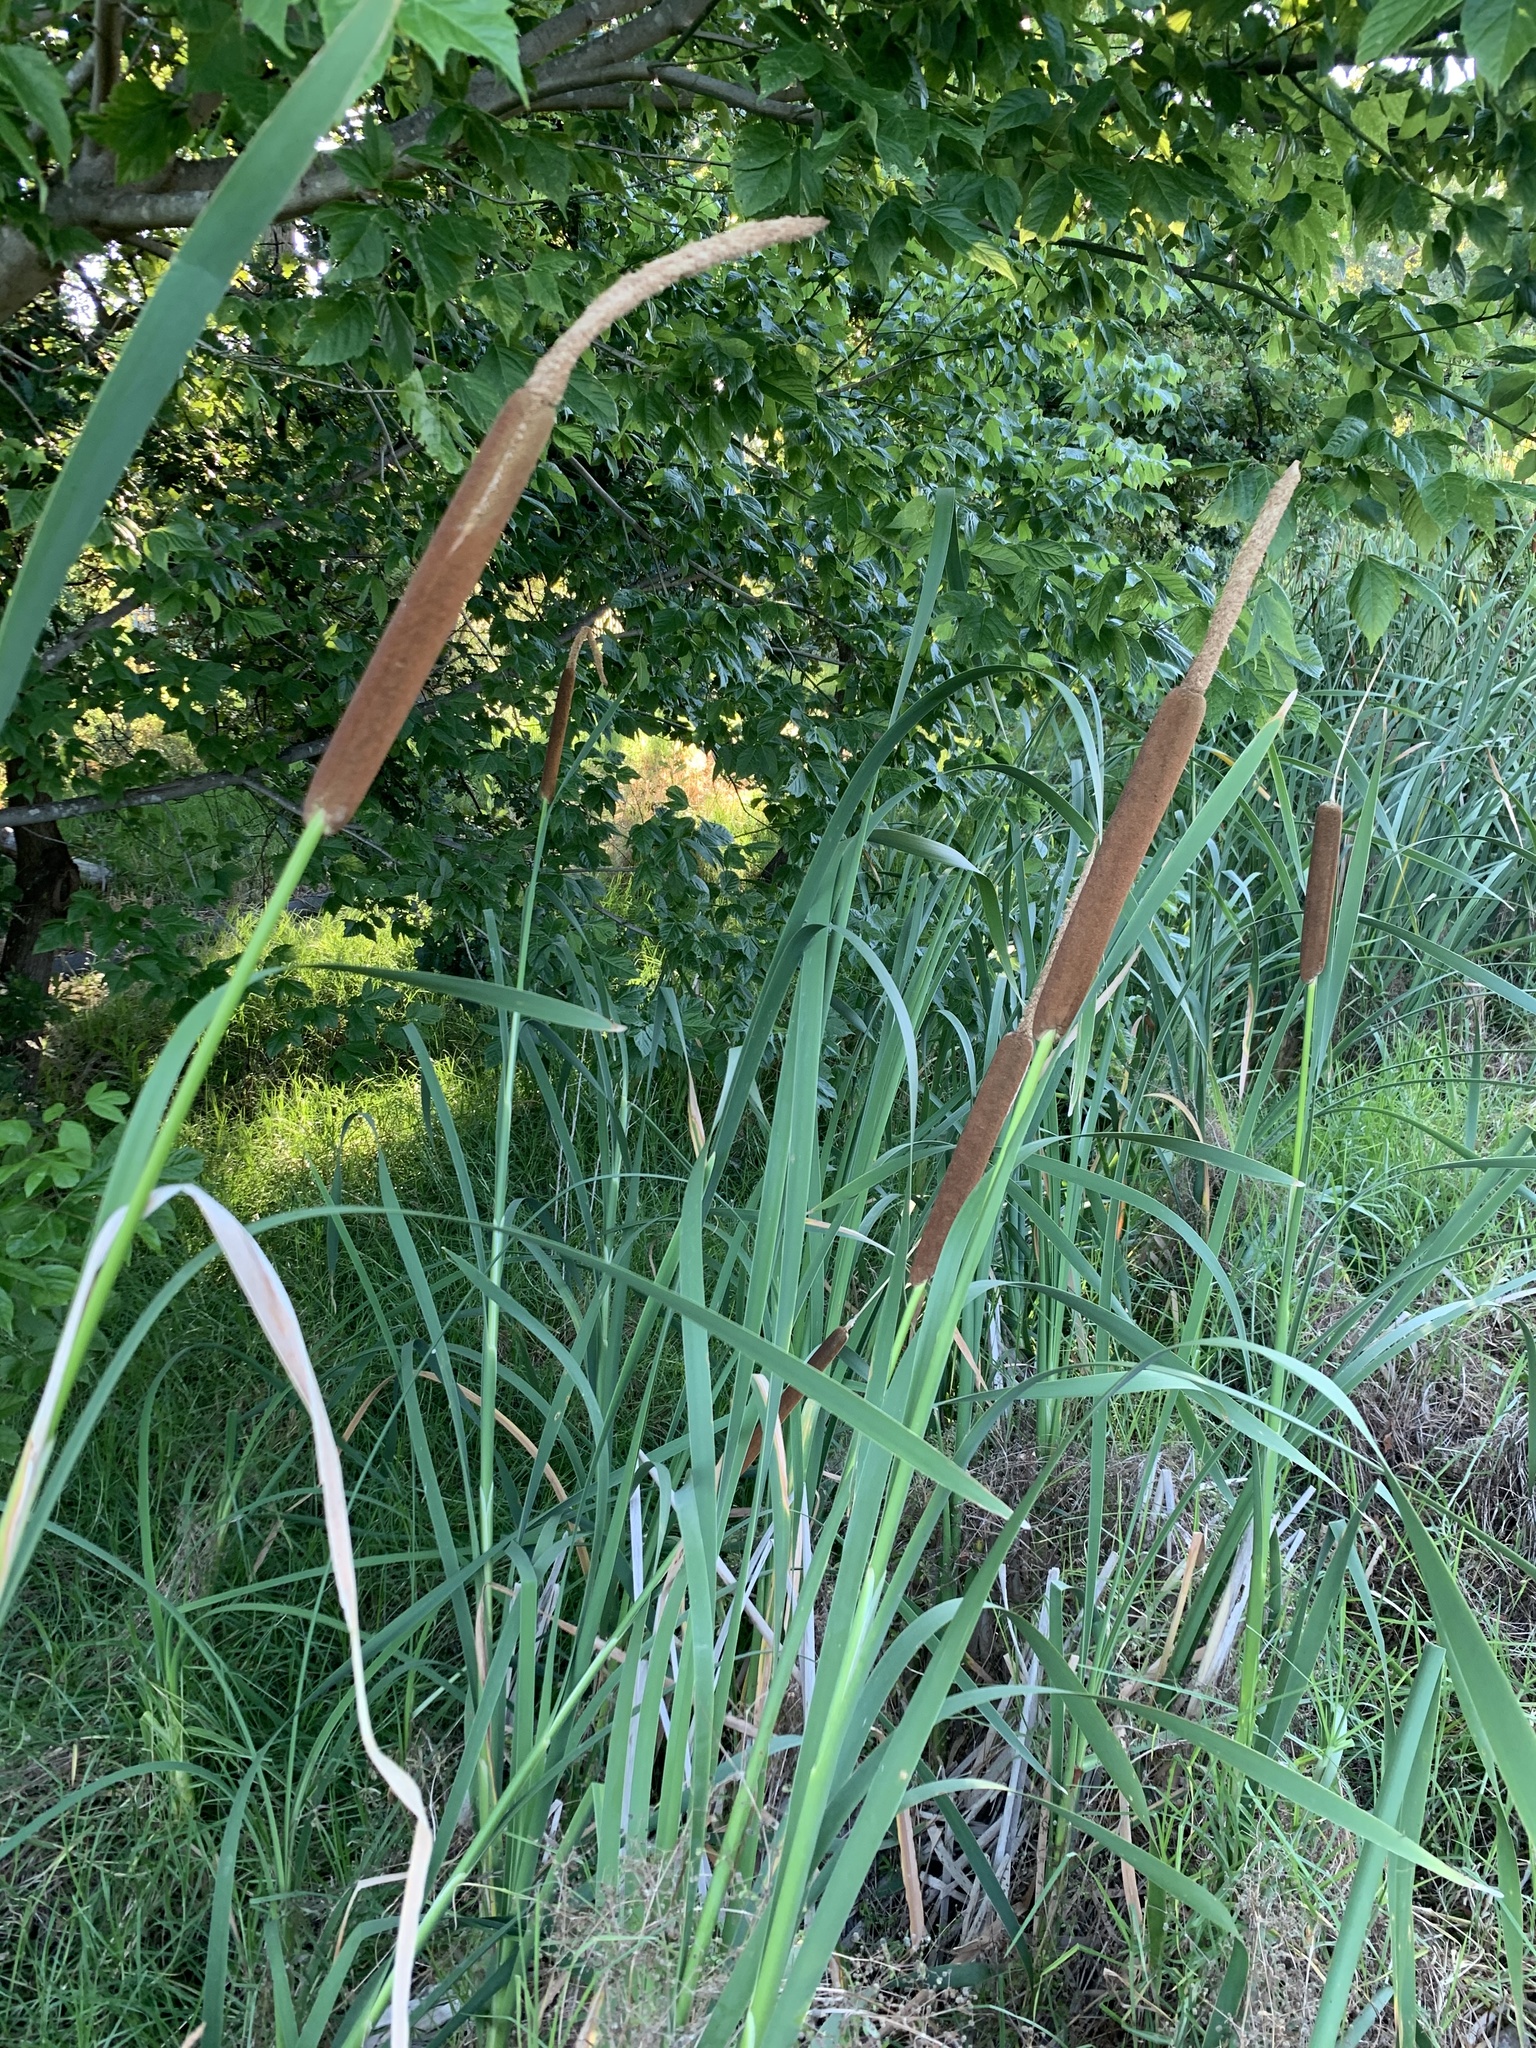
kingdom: Plantae
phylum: Tracheophyta
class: Liliopsida
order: Poales
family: Typhaceae
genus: Typha
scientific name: Typha capensis
